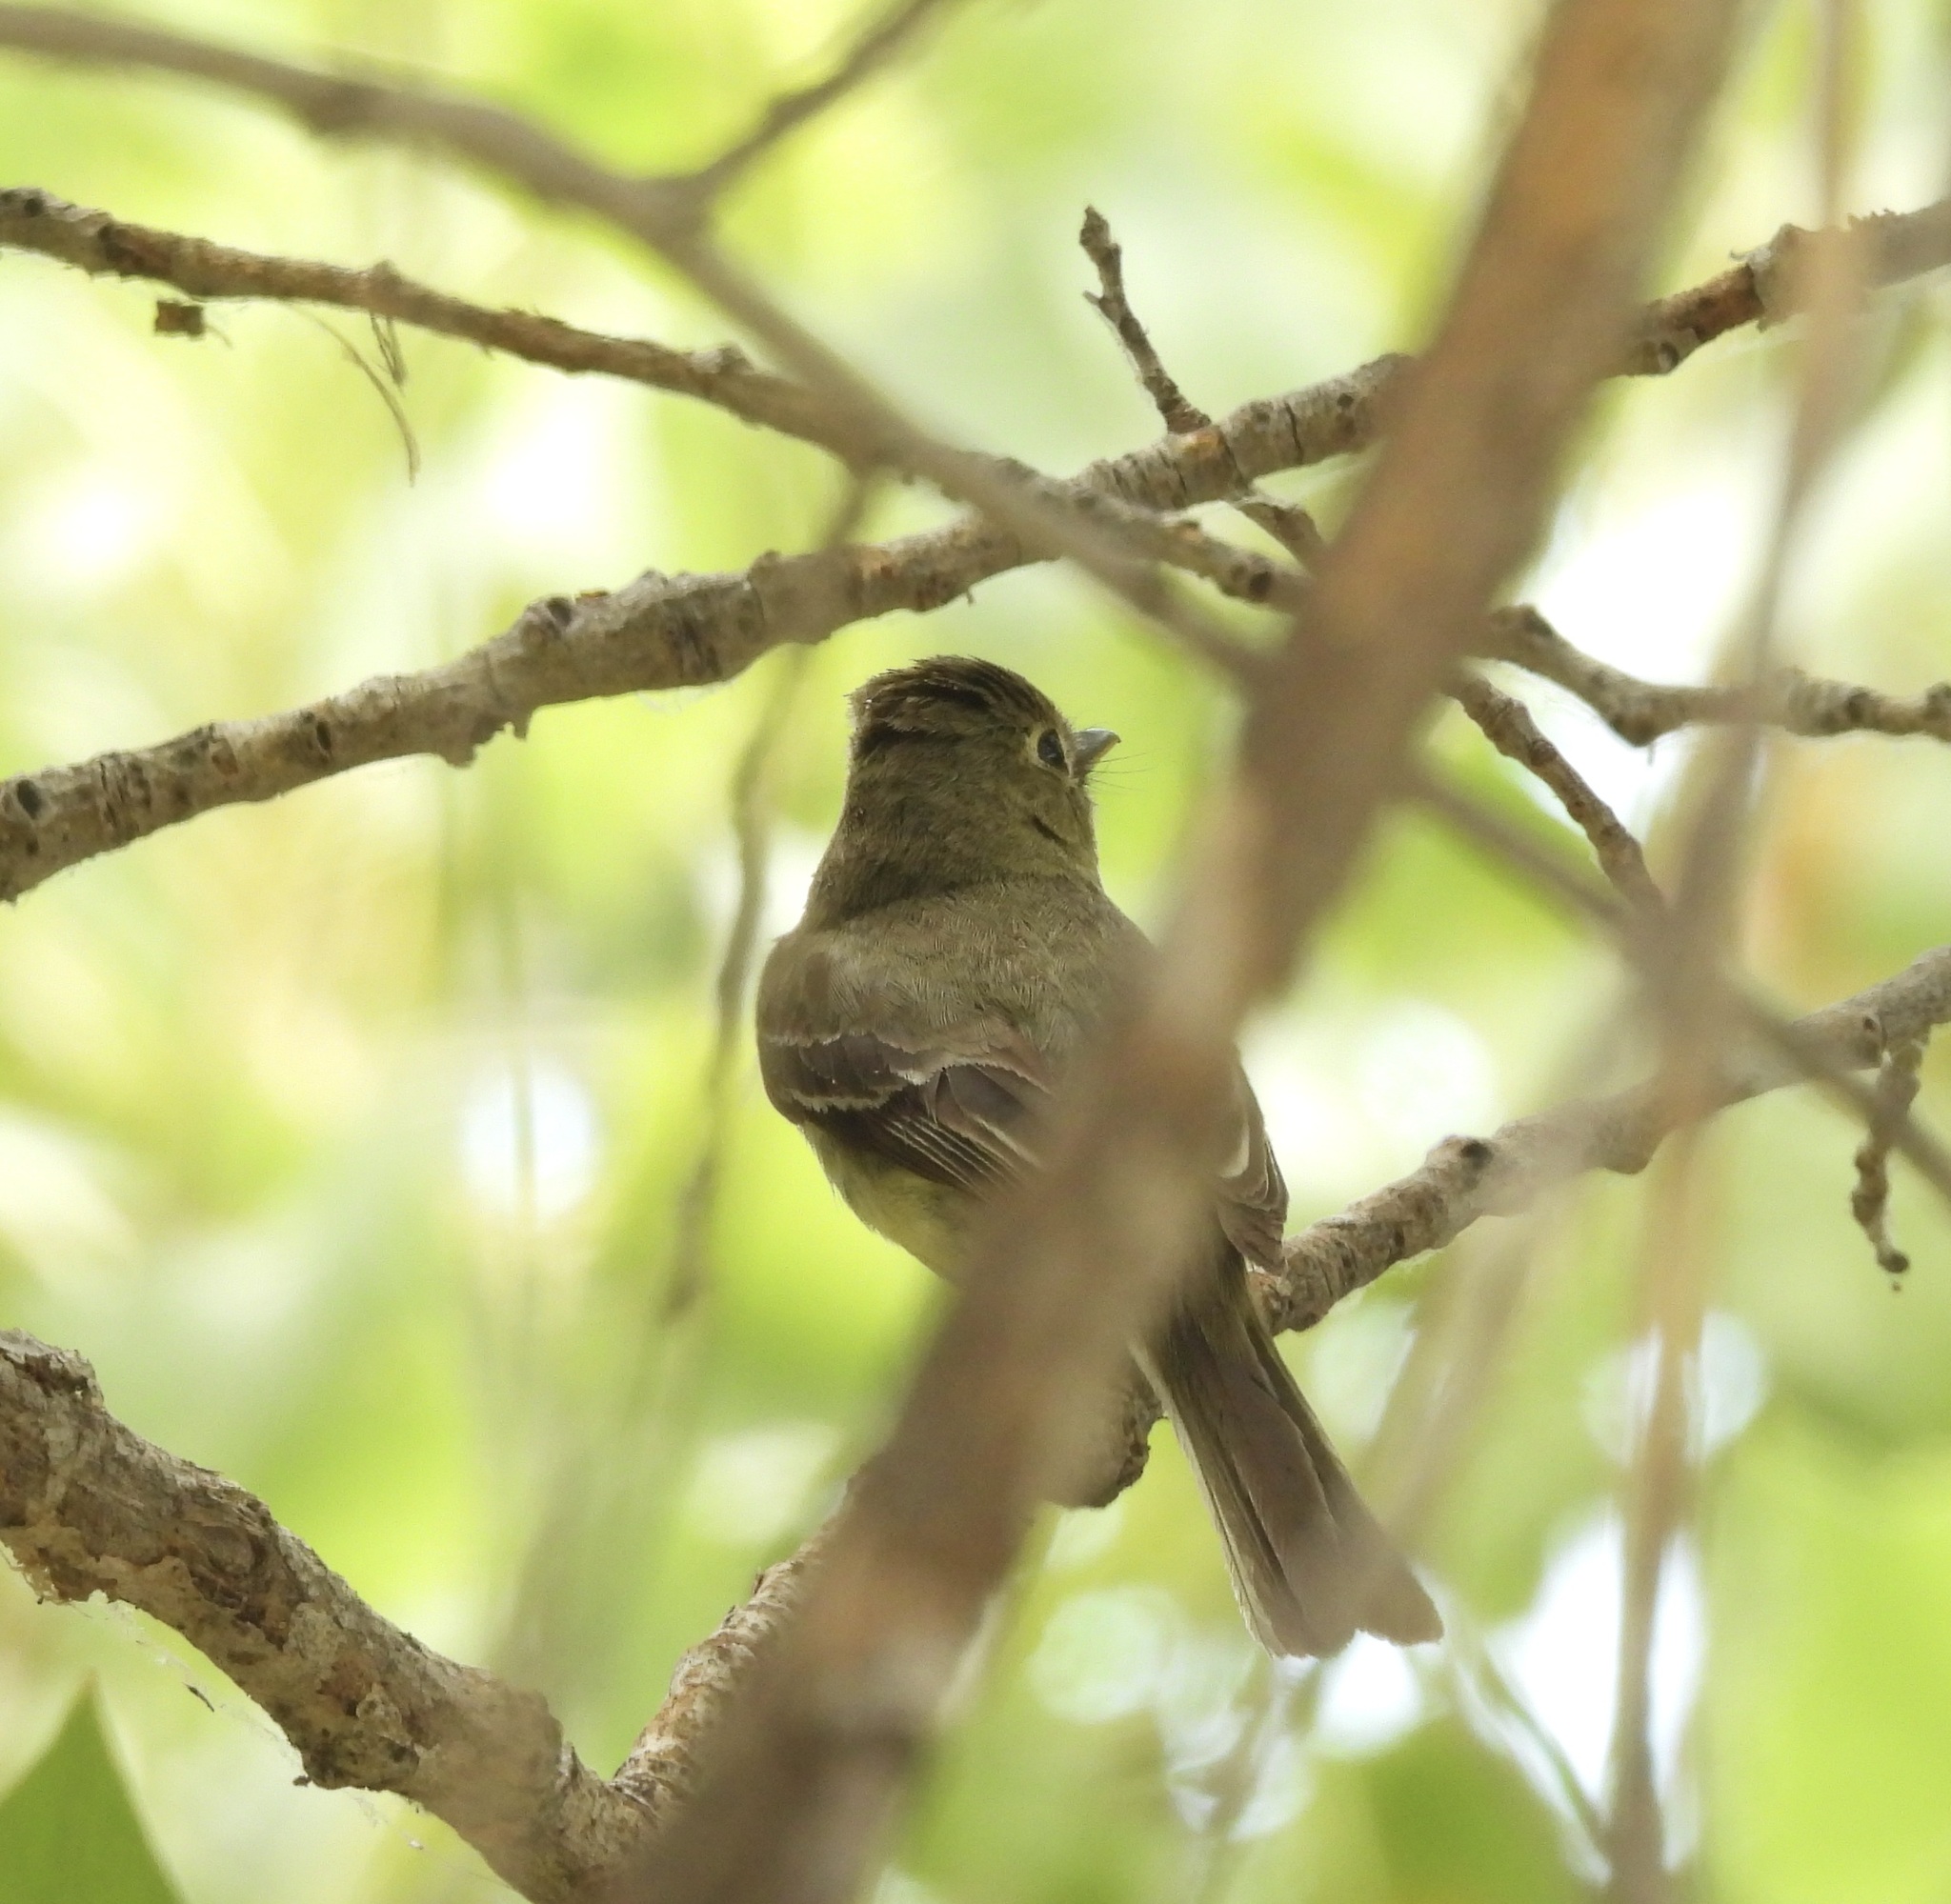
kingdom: Animalia
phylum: Chordata
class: Aves
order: Passeriformes
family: Tyrannidae
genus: Empidonax
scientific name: Empidonax difficilis
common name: Pacific-slope flycatcher
